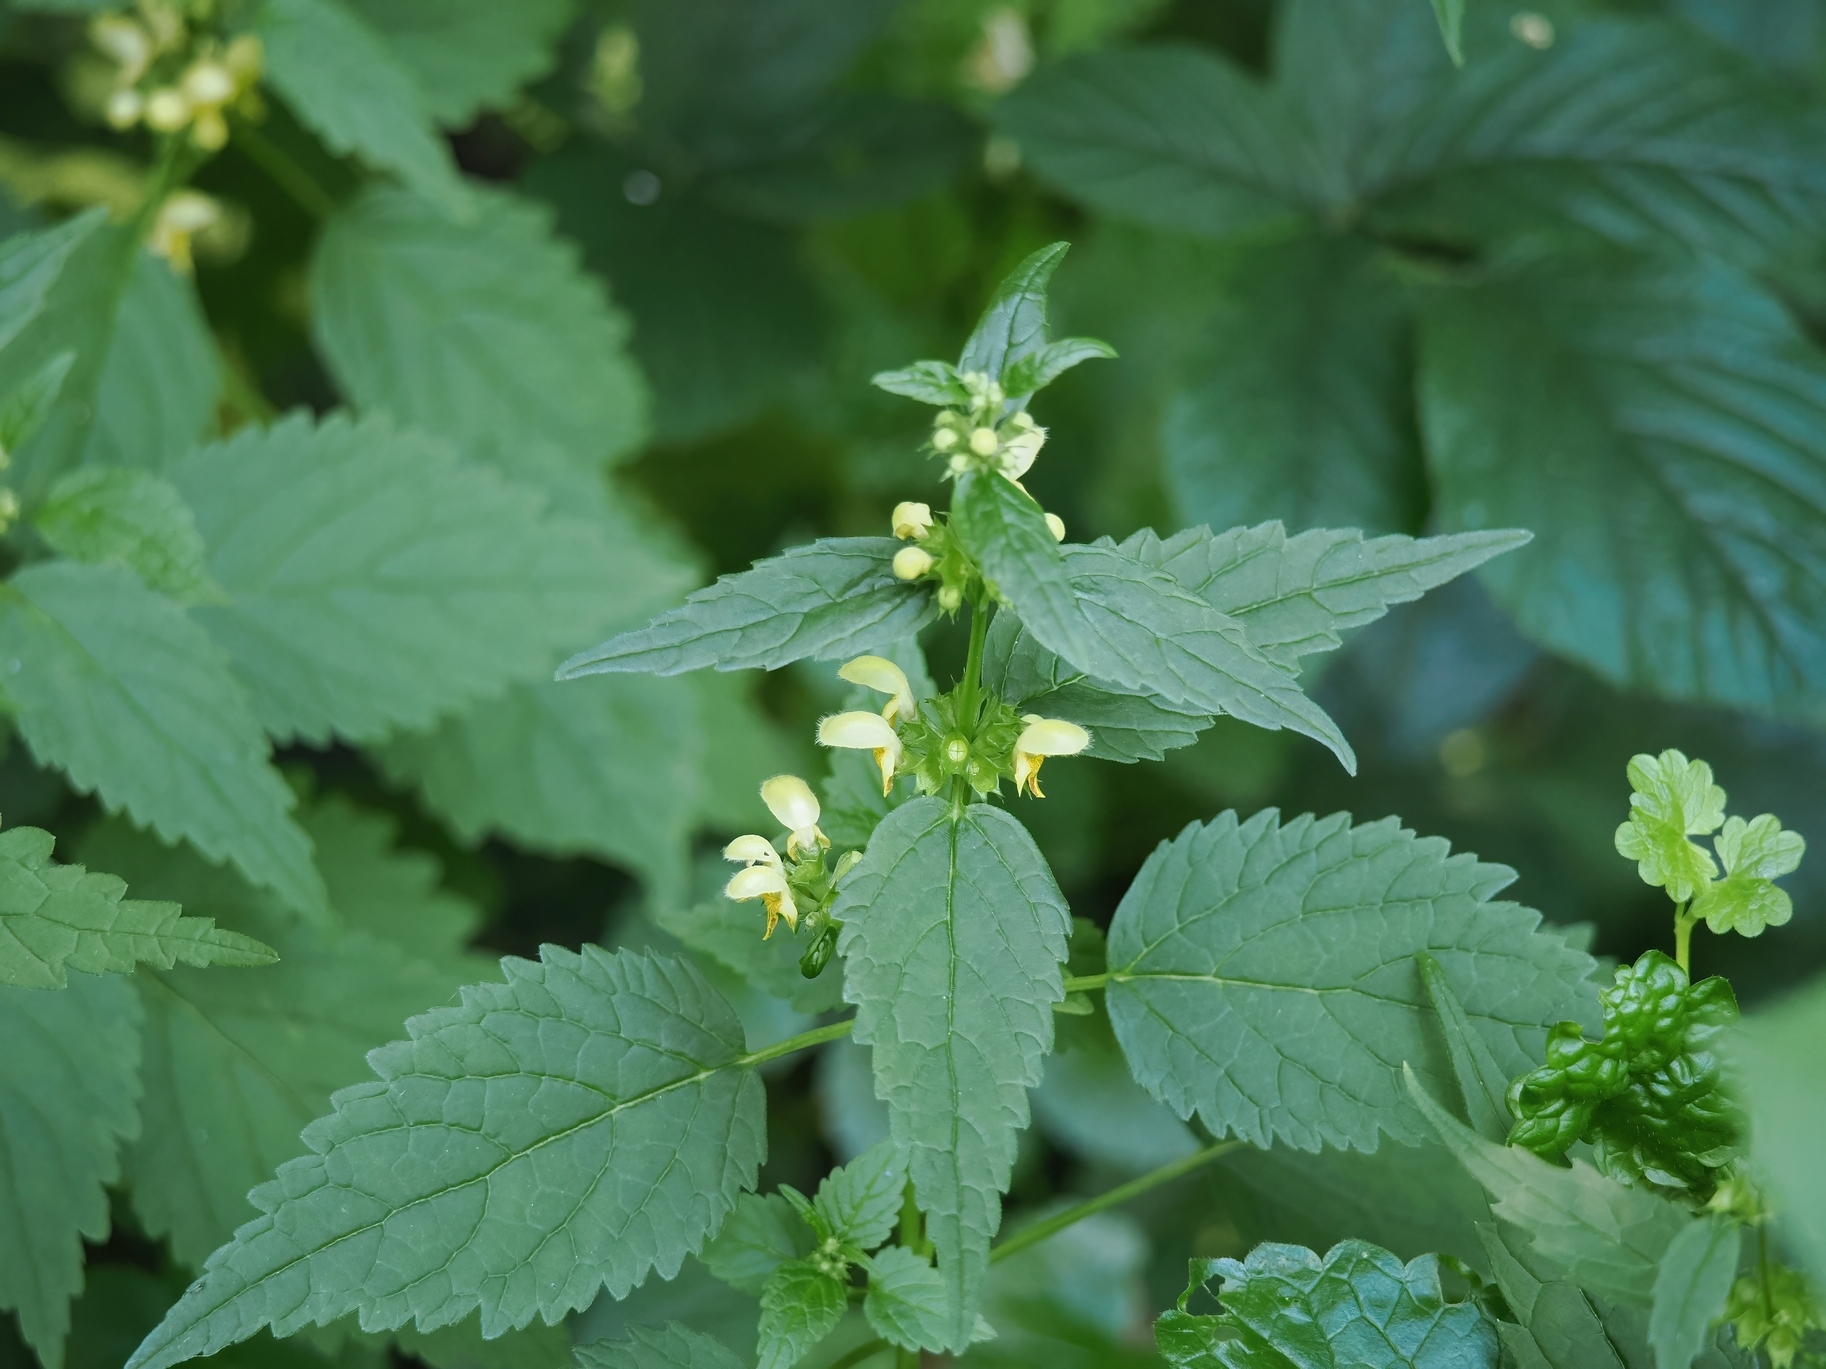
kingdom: Plantae
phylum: Tracheophyta
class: Magnoliopsida
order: Lamiales
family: Lamiaceae
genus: Lamium
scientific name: Lamium galeobdolon
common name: Yellow archangel
